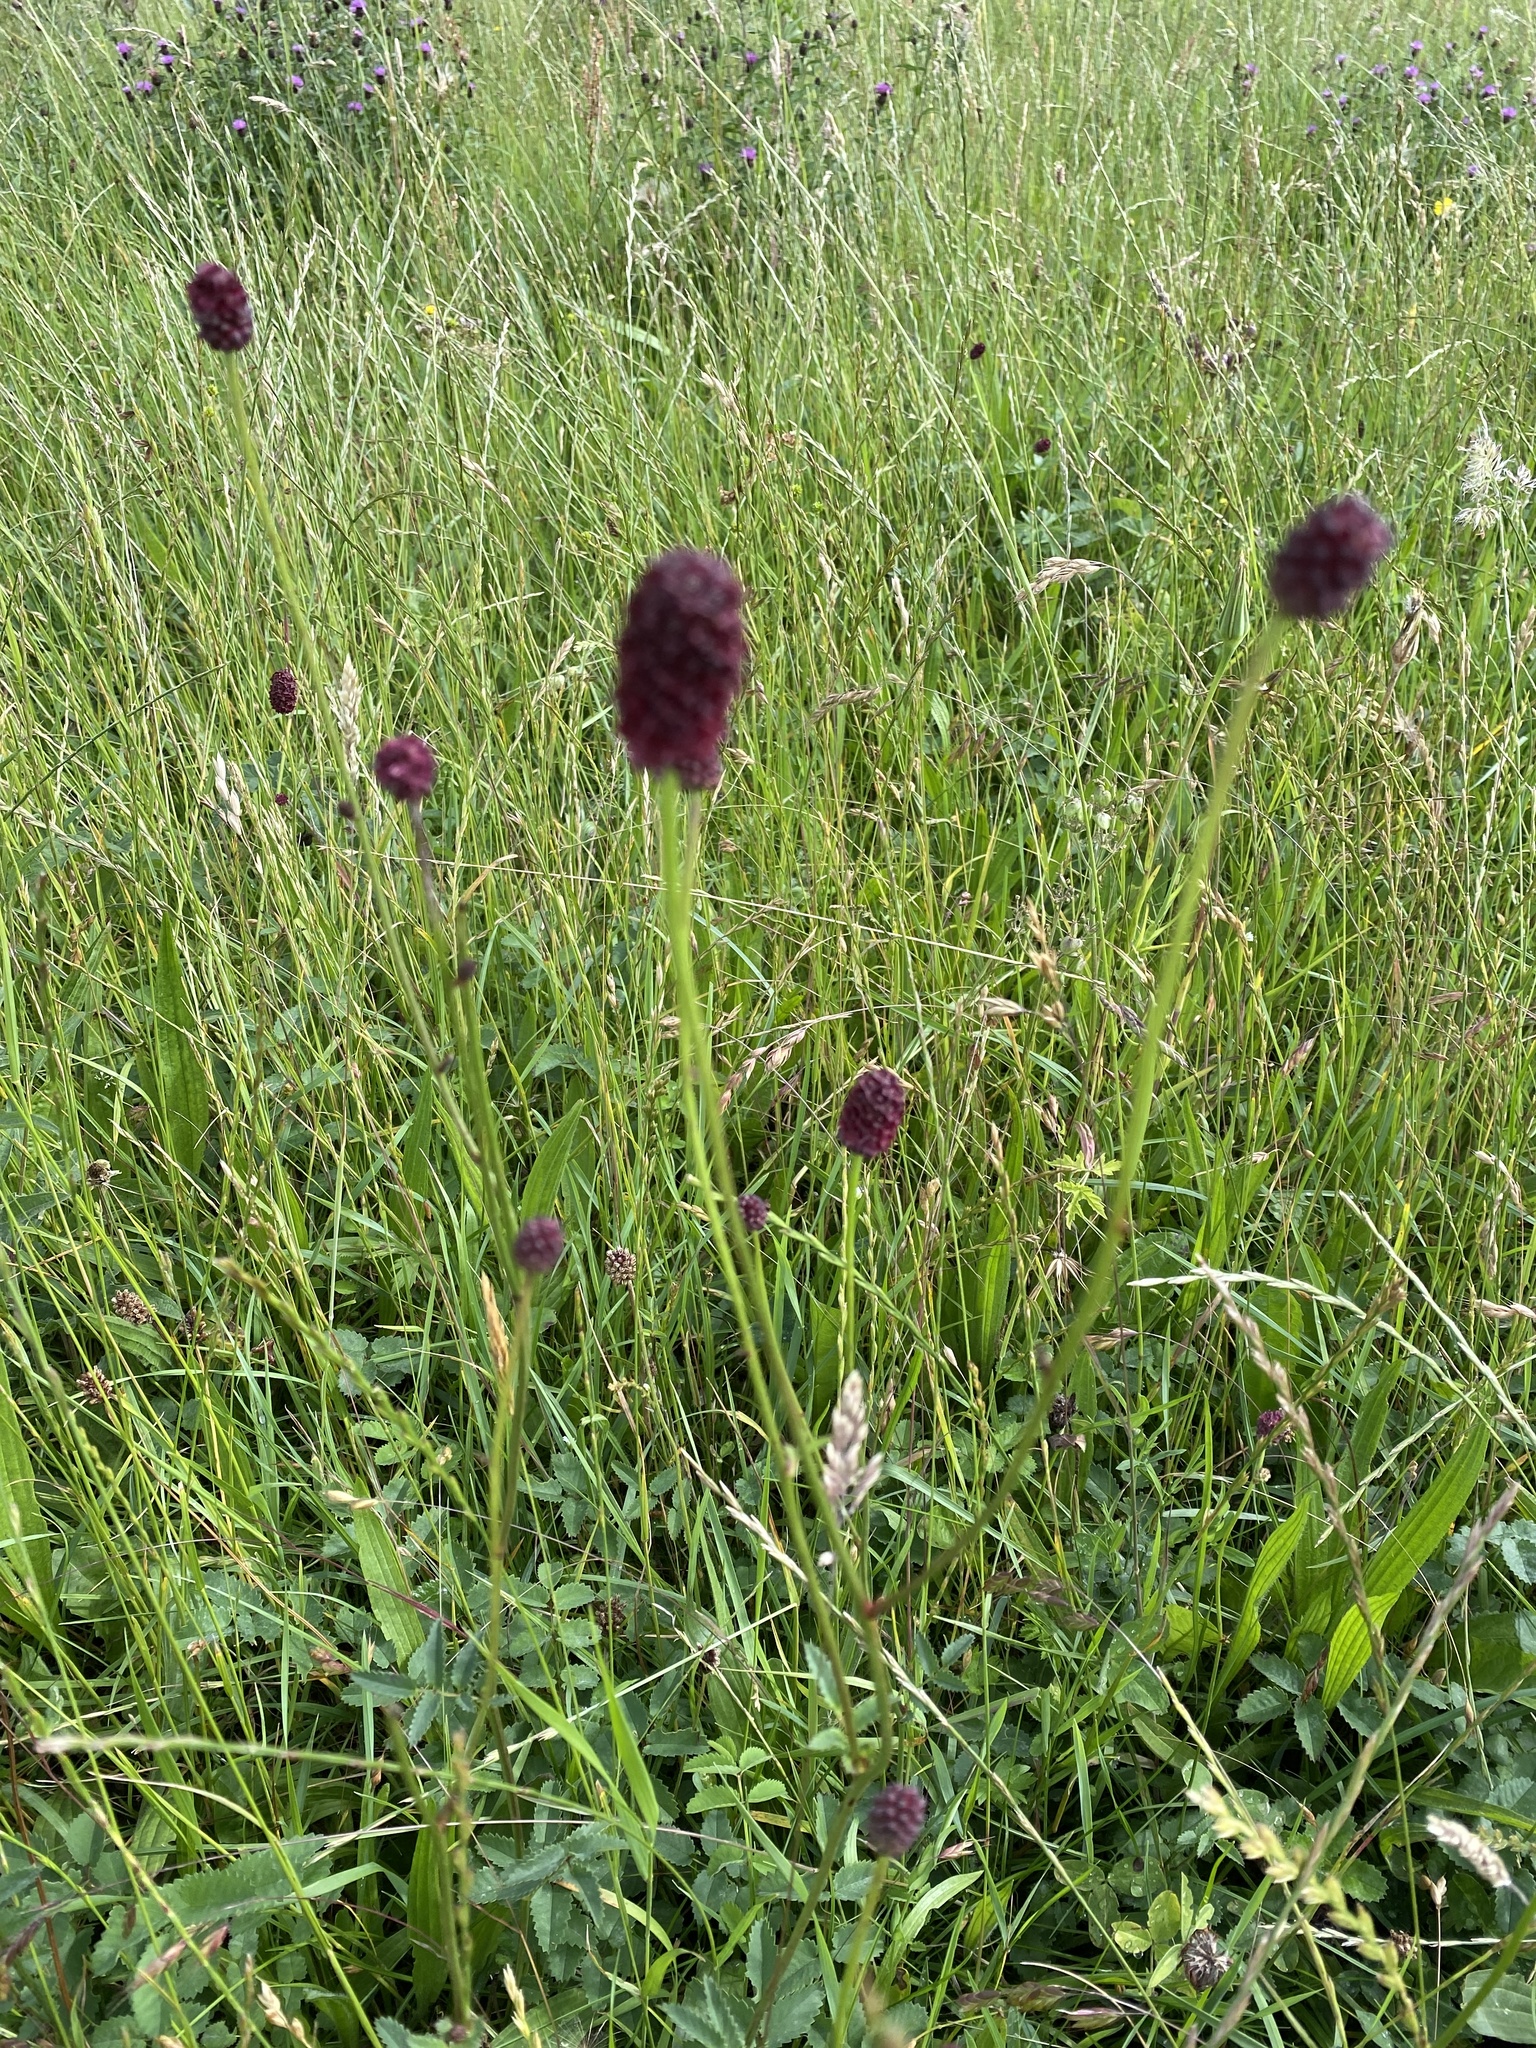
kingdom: Plantae
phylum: Tracheophyta
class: Magnoliopsida
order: Rosales
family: Rosaceae
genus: Sanguisorba
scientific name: Sanguisorba officinalis
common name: Great burnet
